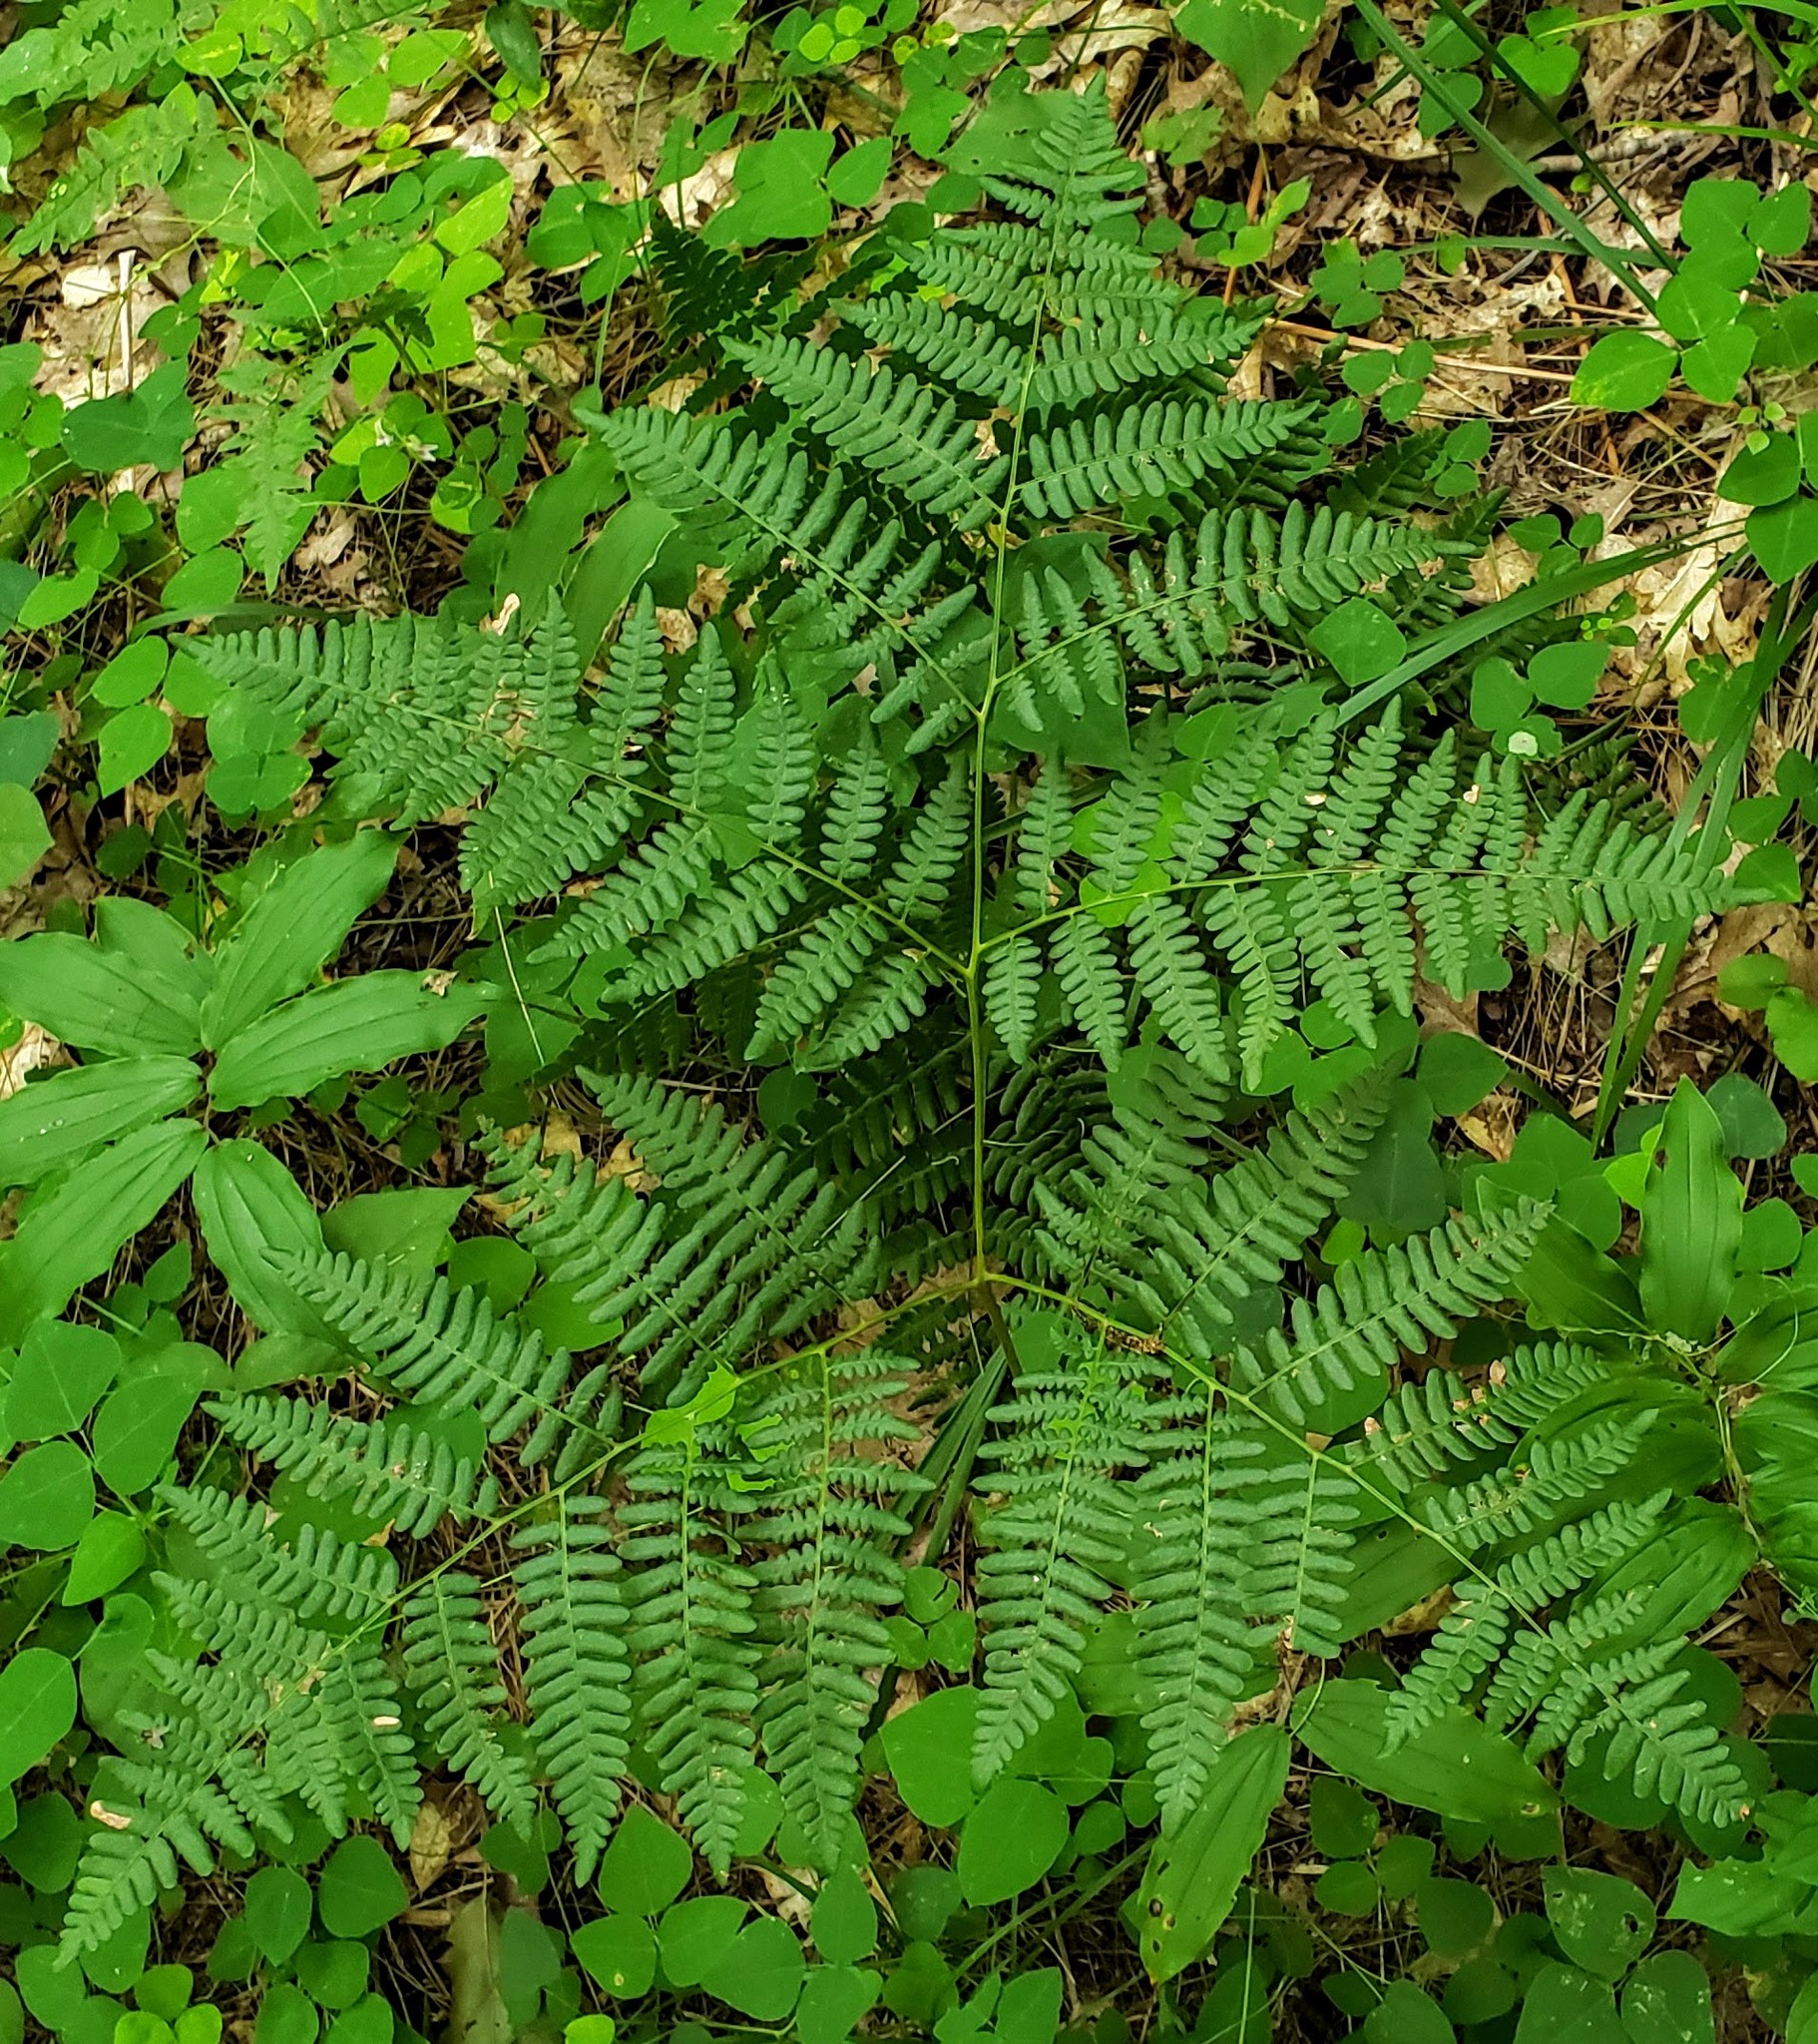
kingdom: Plantae
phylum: Tracheophyta
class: Polypodiopsida
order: Polypodiales
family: Dennstaedtiaceae
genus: Pteridium
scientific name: Pteridium aquilinum
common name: Bracken
